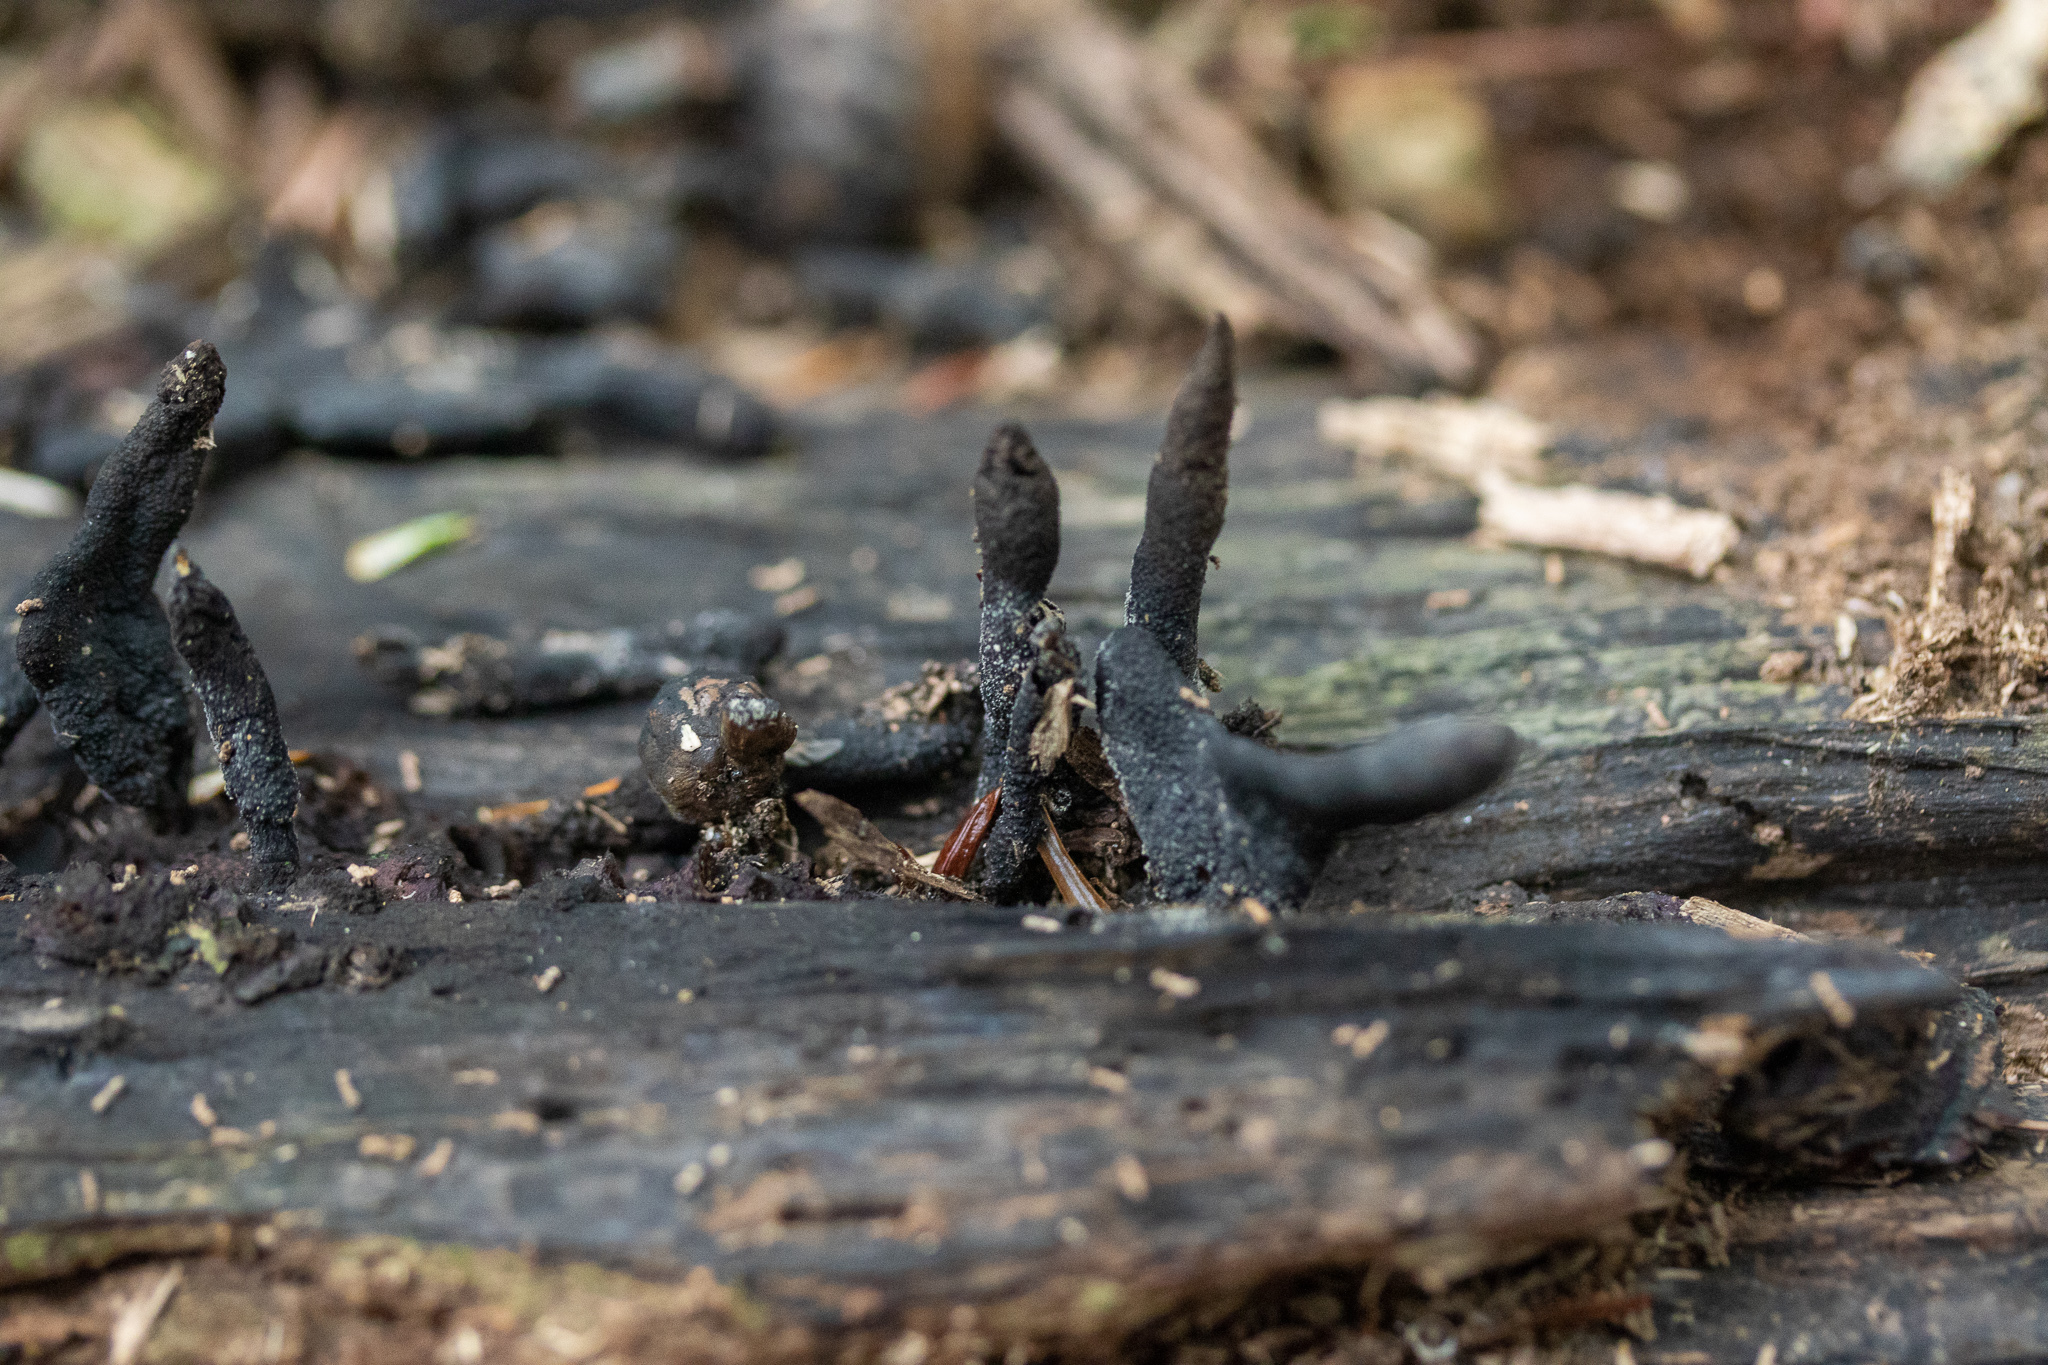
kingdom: Fungi
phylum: Ascomycota
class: Sordariomycetes
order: Xylariales
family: Xylariaceae
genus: Xylaria
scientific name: Xylaria hypoxylon
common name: Candle-snuff fungus
